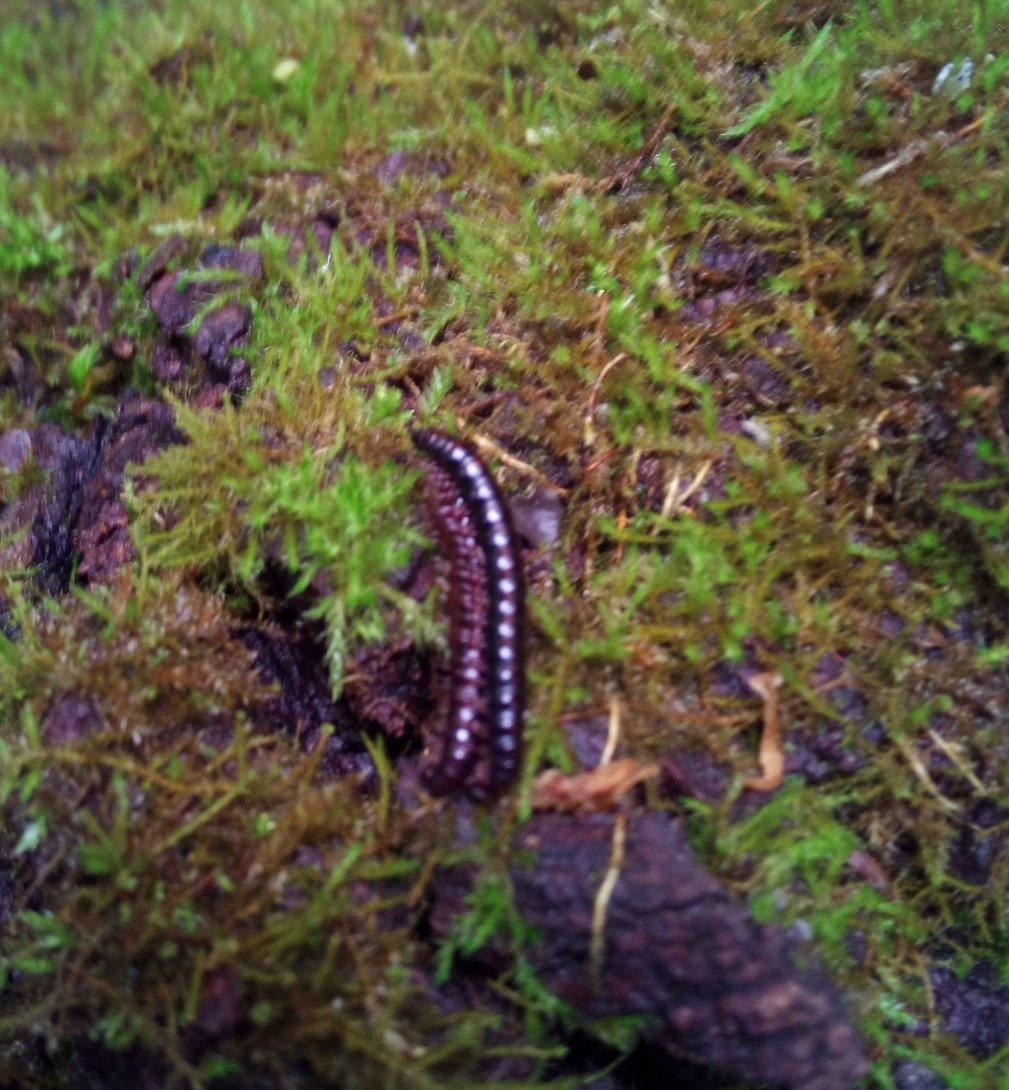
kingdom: Animalia
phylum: Arthropoda
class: Diplopoda
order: Polydesmida
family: Paradoxosomatidae
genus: Strongylosoma
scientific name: Strongylosoma stigmatosus
